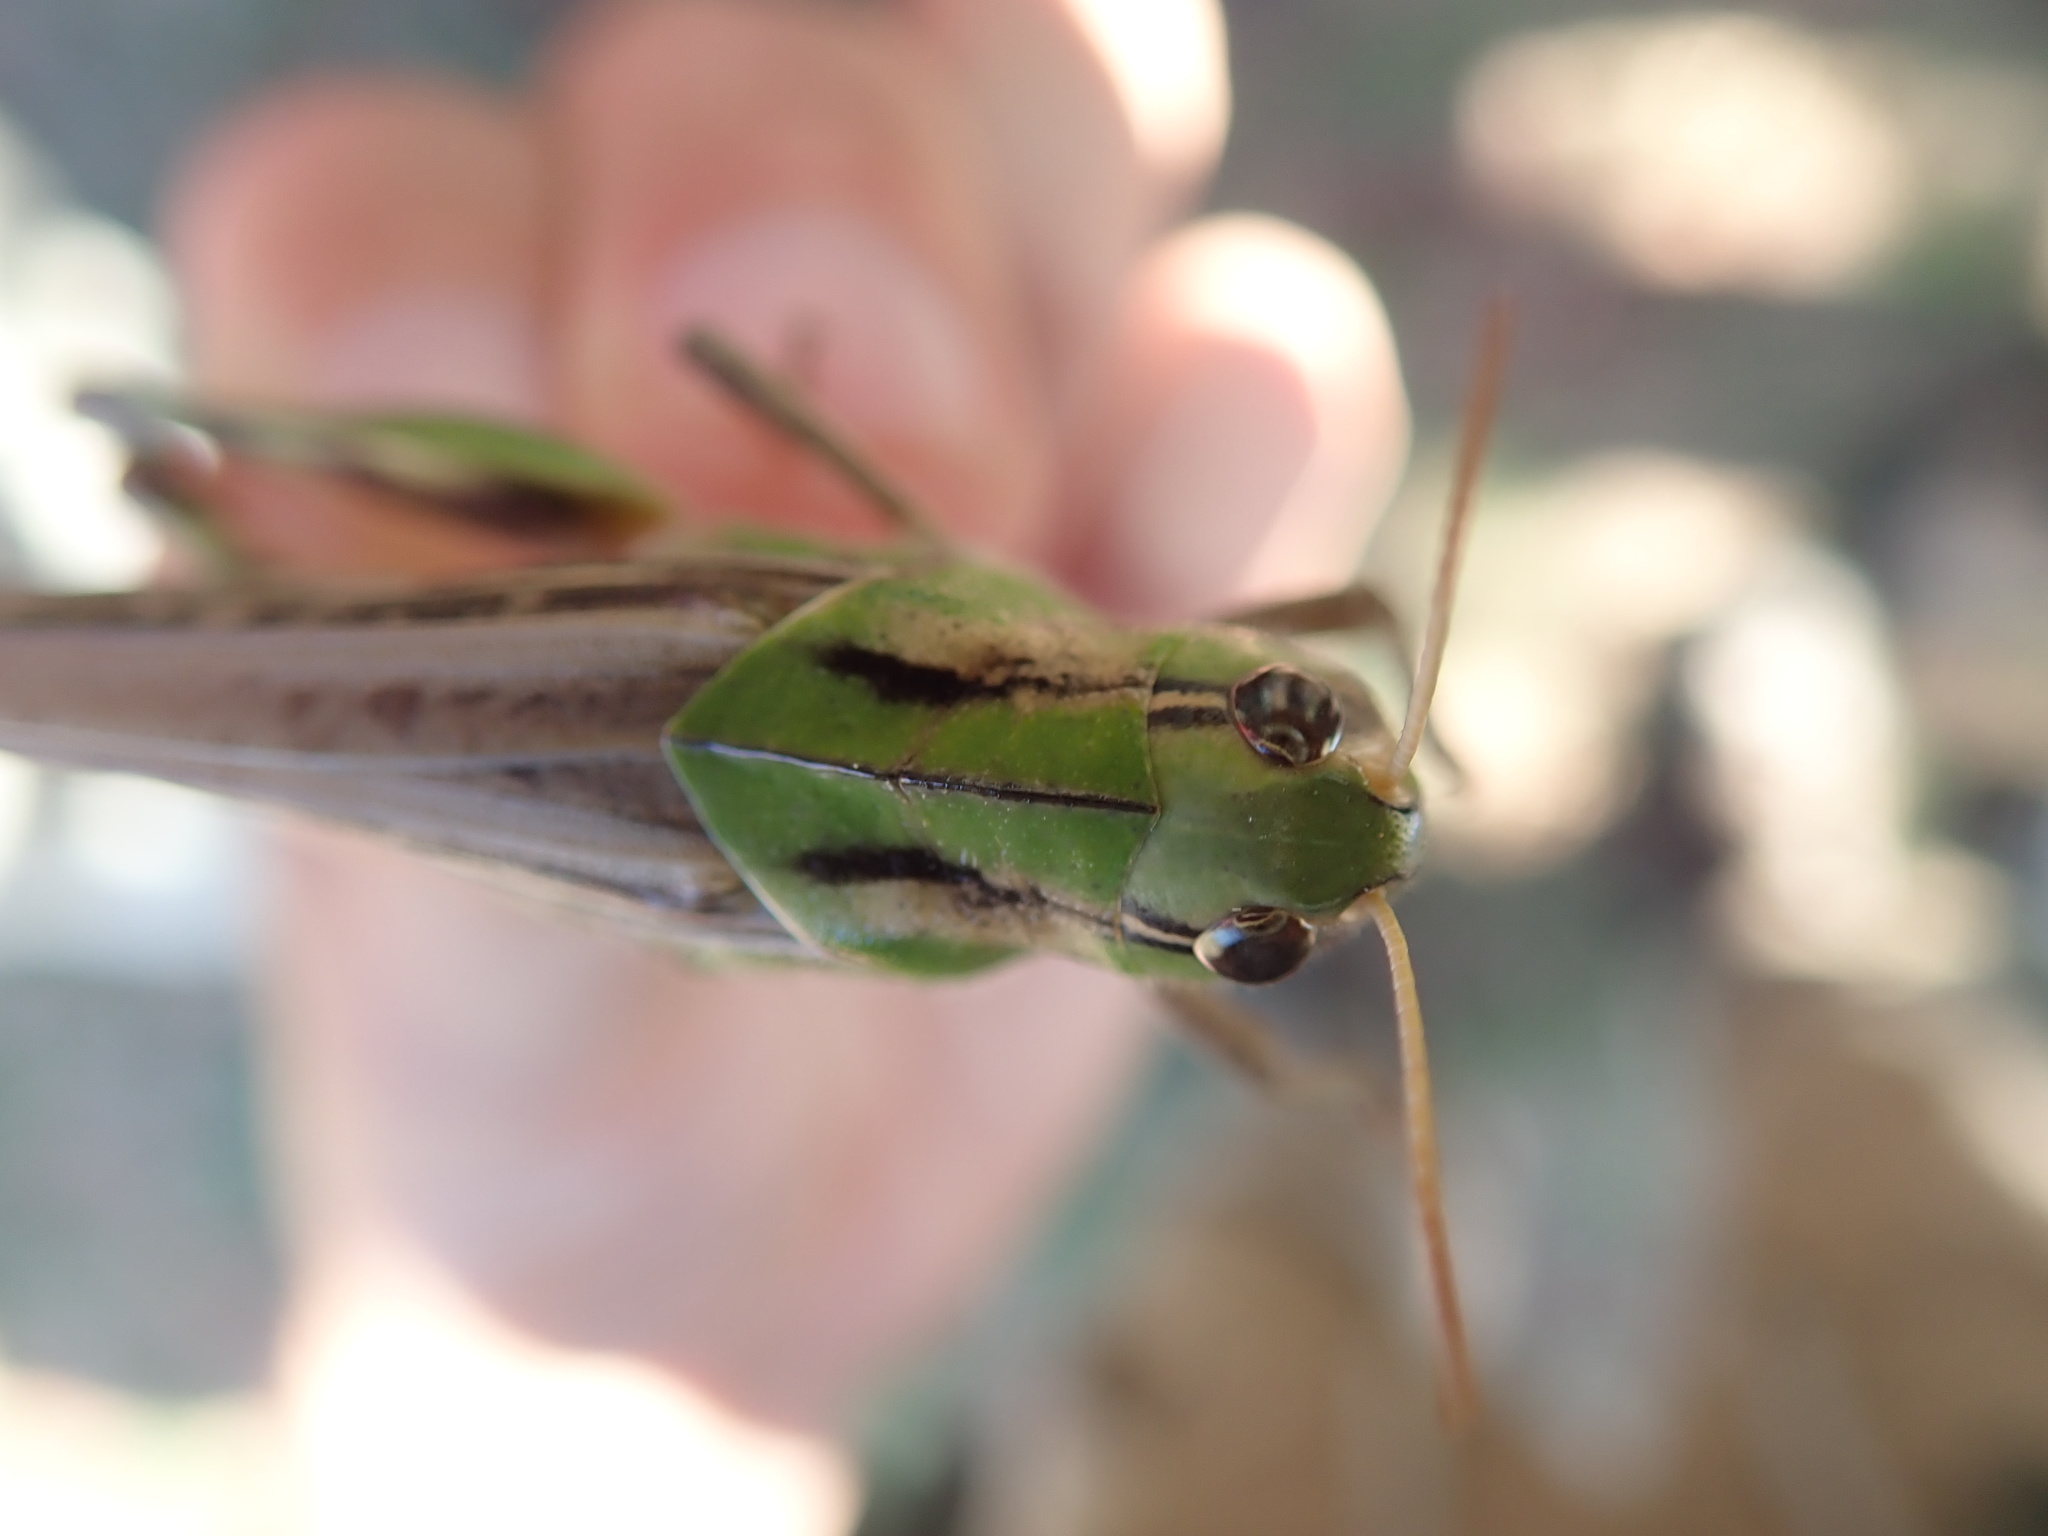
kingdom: Animalia
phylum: Arthropoda
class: Insecta
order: Orthoptera
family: Acrididae
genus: Locusta
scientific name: Locusta migratoria
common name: Migratory locust
